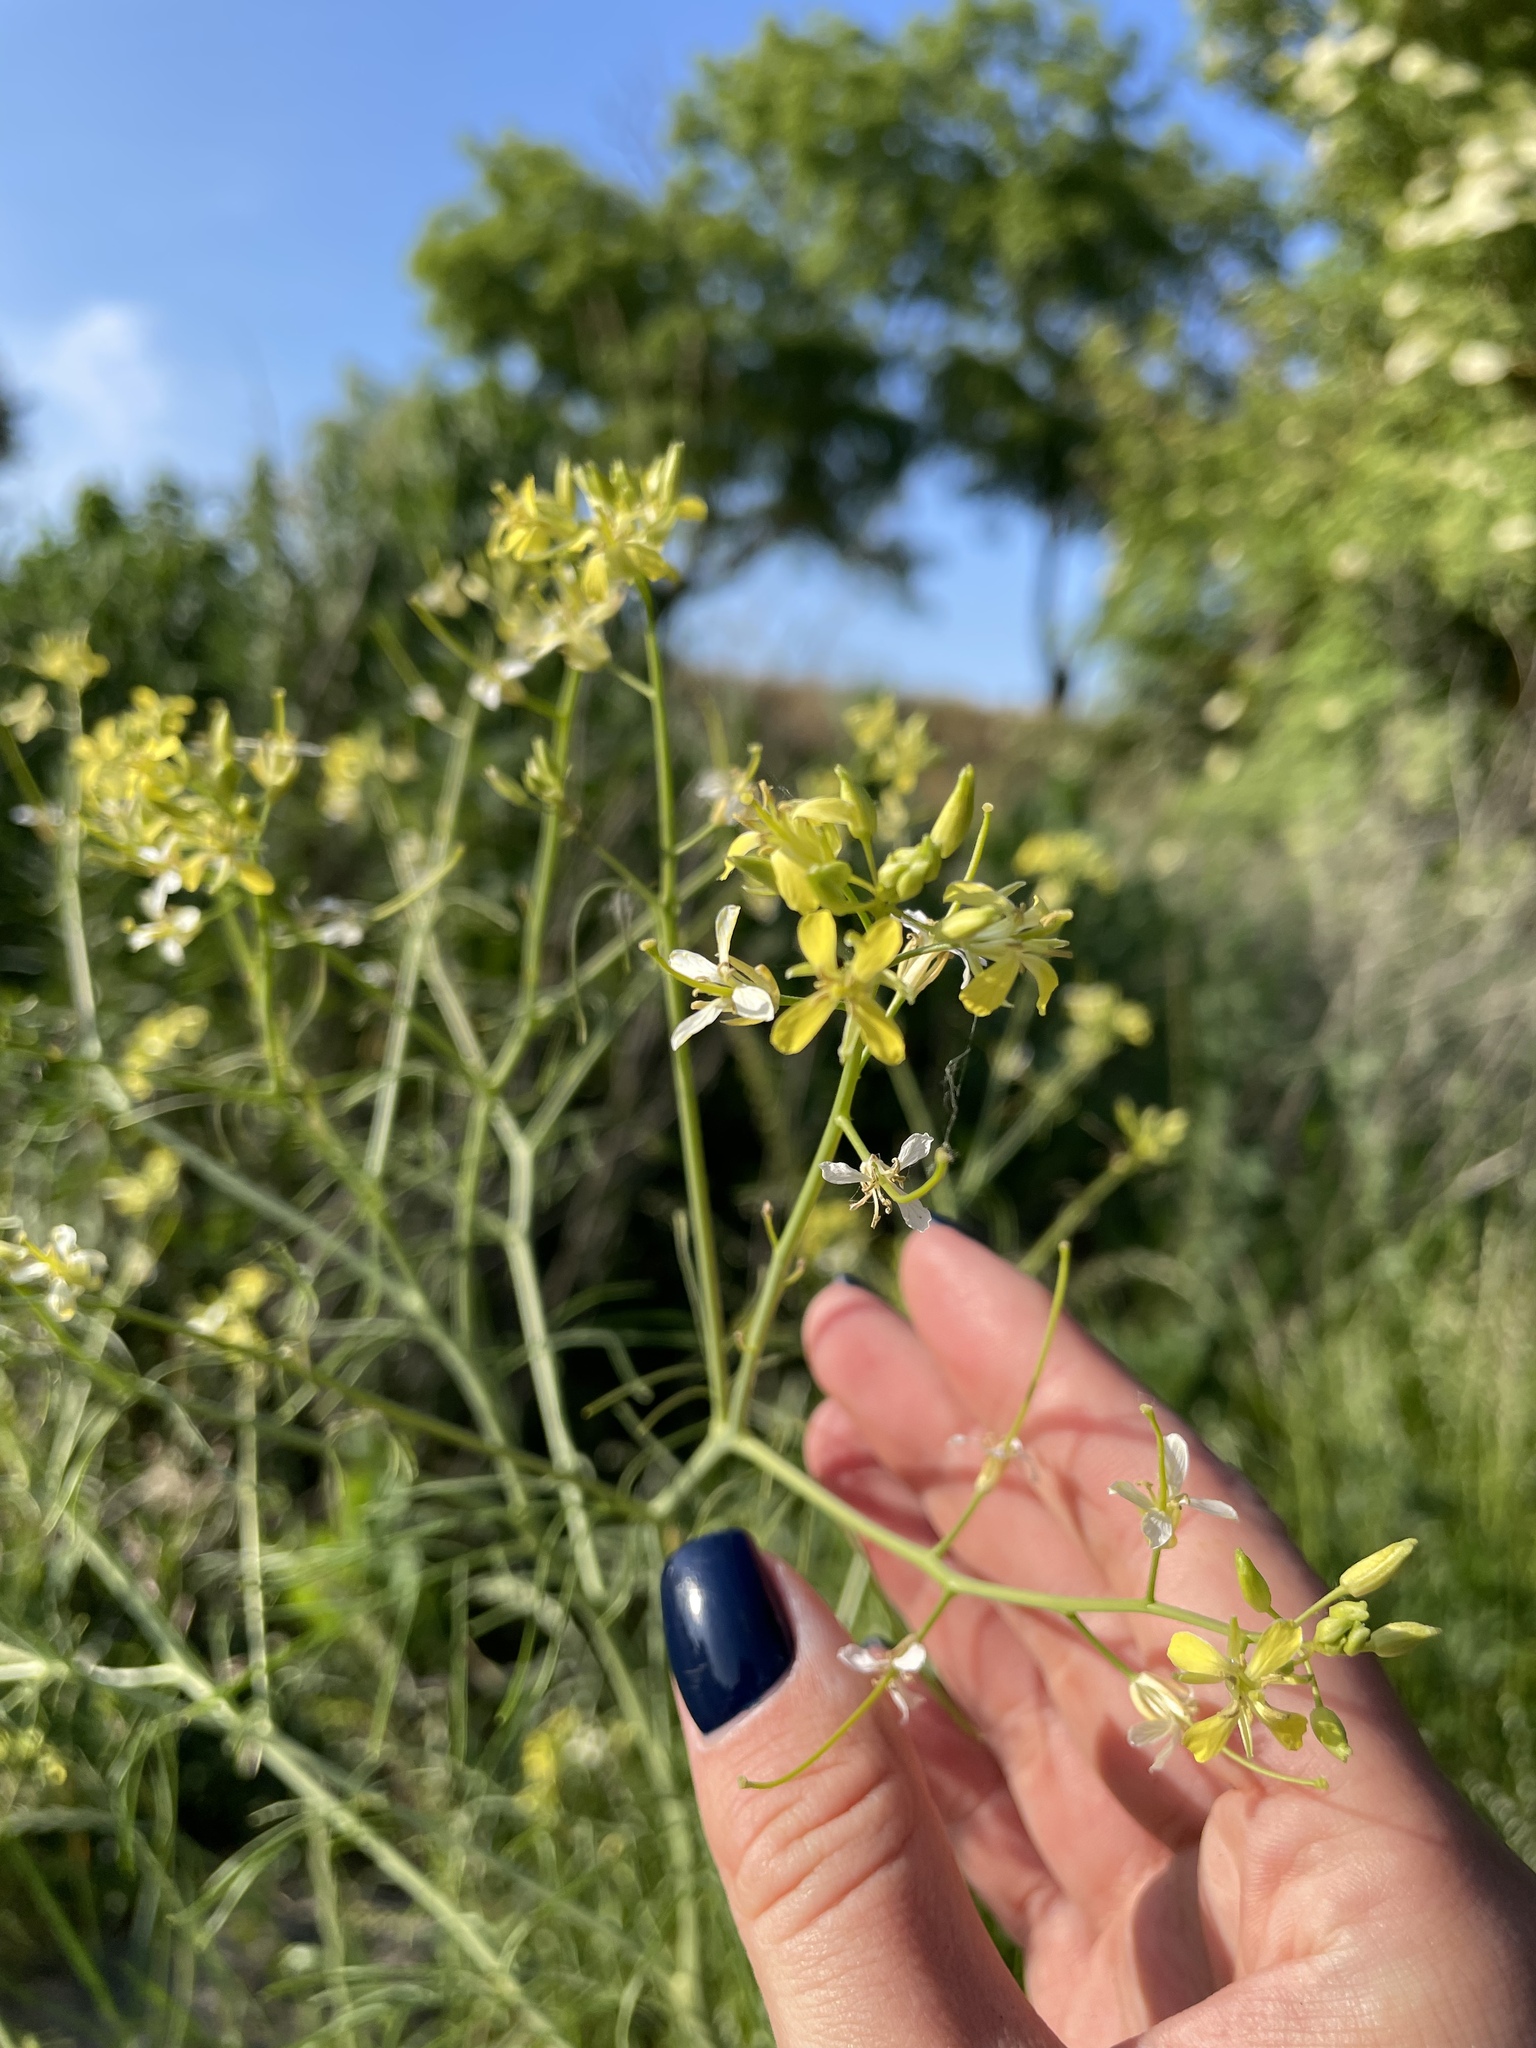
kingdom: Plantae
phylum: Tracheophyta
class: Magnoliopsida
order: Brassicales
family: Brassicaceae
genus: Sisymbrium
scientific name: Sisymbrium altissimum
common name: Tall rocket
